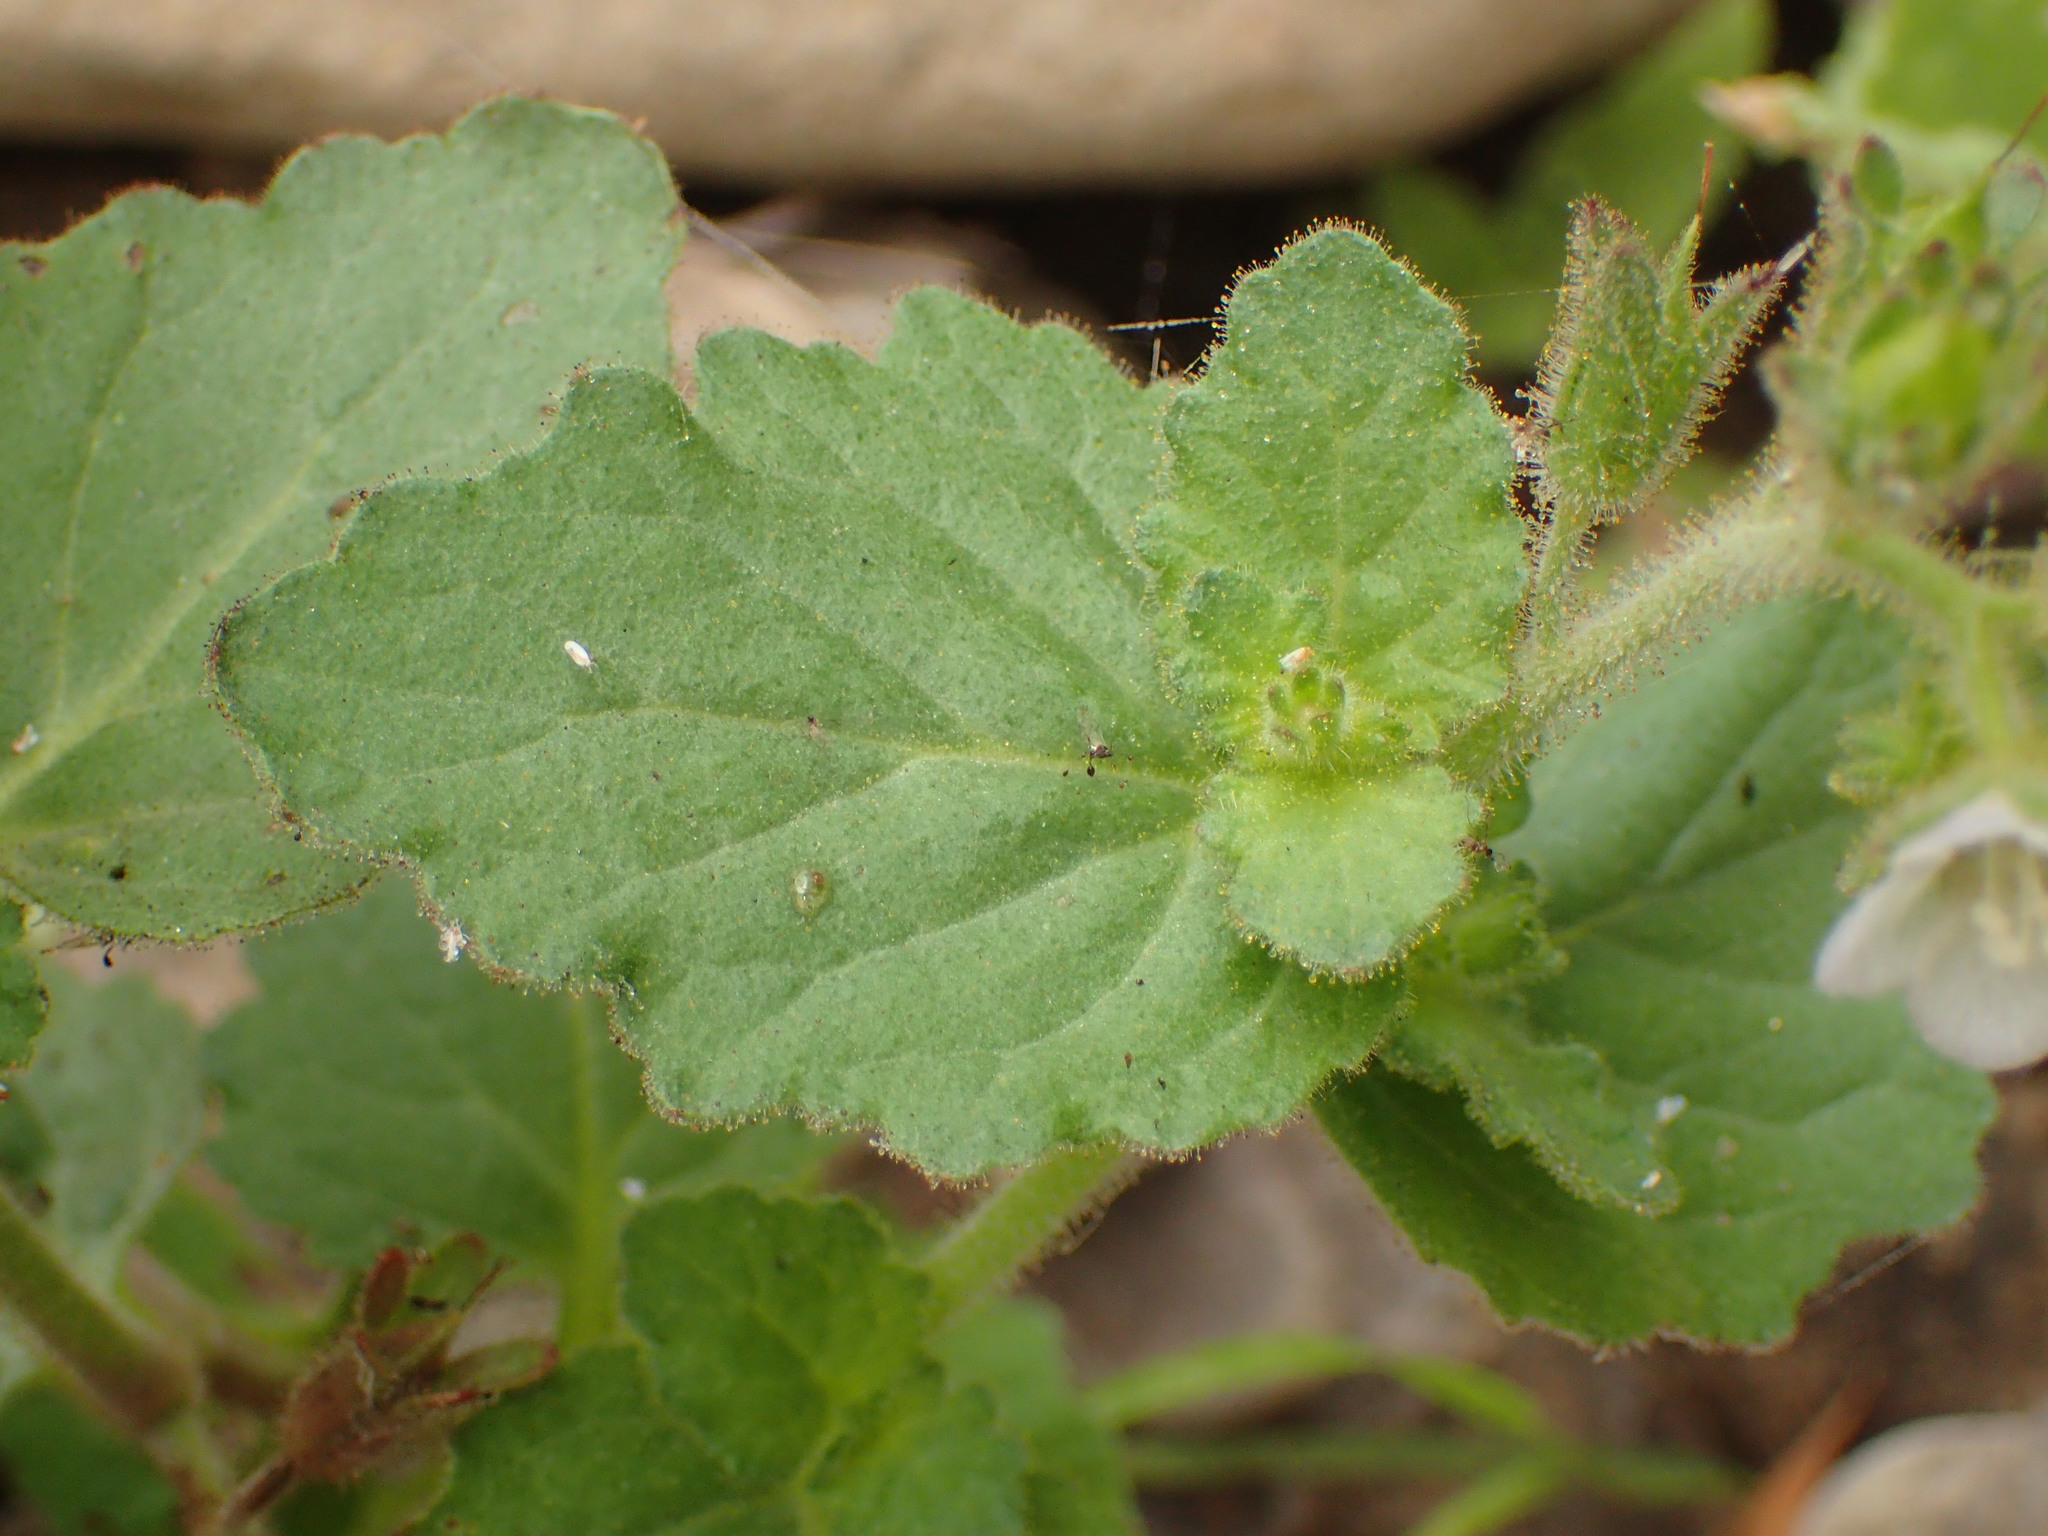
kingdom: Plantae
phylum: Tracheophyta
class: Magnoliopsida
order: Boraginales
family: Hydrophyllaceae
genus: Phacelia
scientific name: Phacelia viscida
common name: Sticky phacelia
